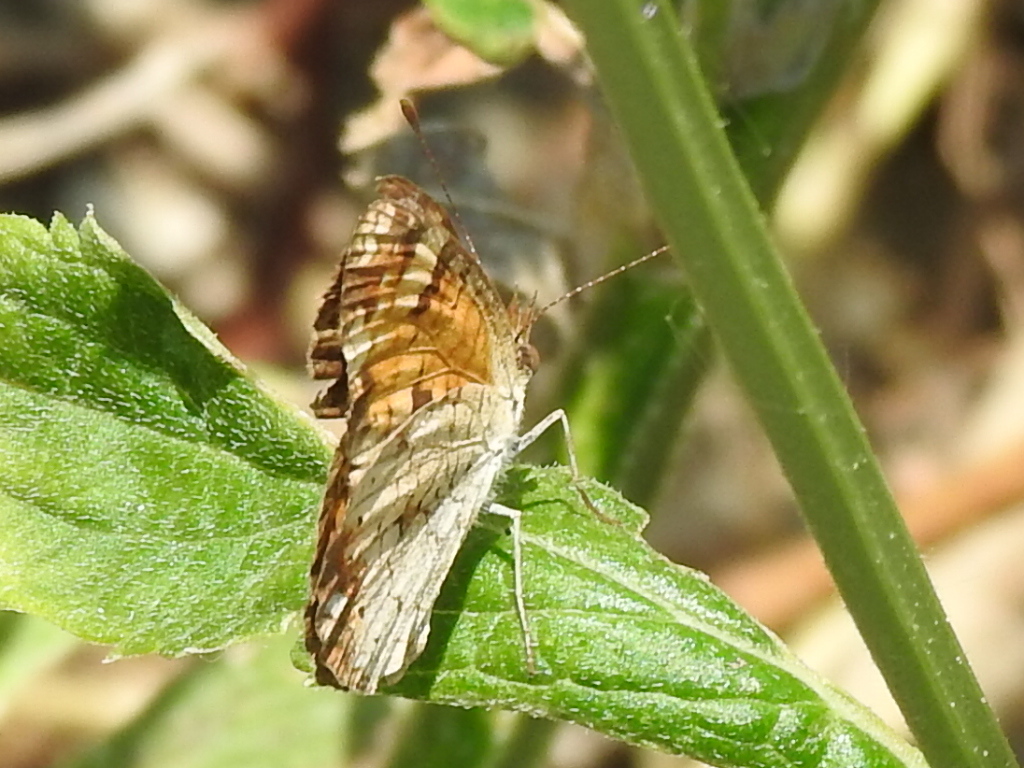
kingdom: Animalia
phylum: Arthropoda
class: Insecta
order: Lepidoptera
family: Nymphalidae
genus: Phyciodes
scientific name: Phyciodes tharos
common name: Pearl crescent
